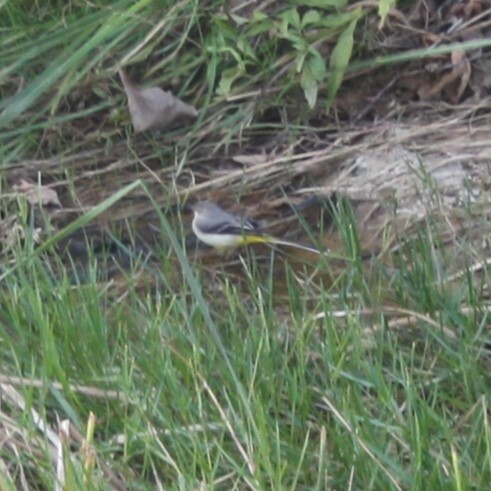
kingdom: Animalia
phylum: Chordata
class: Aves
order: Passeriformes
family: Motacillidae
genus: Motacilla
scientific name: Motacilla cinerea
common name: Grey wagtail
